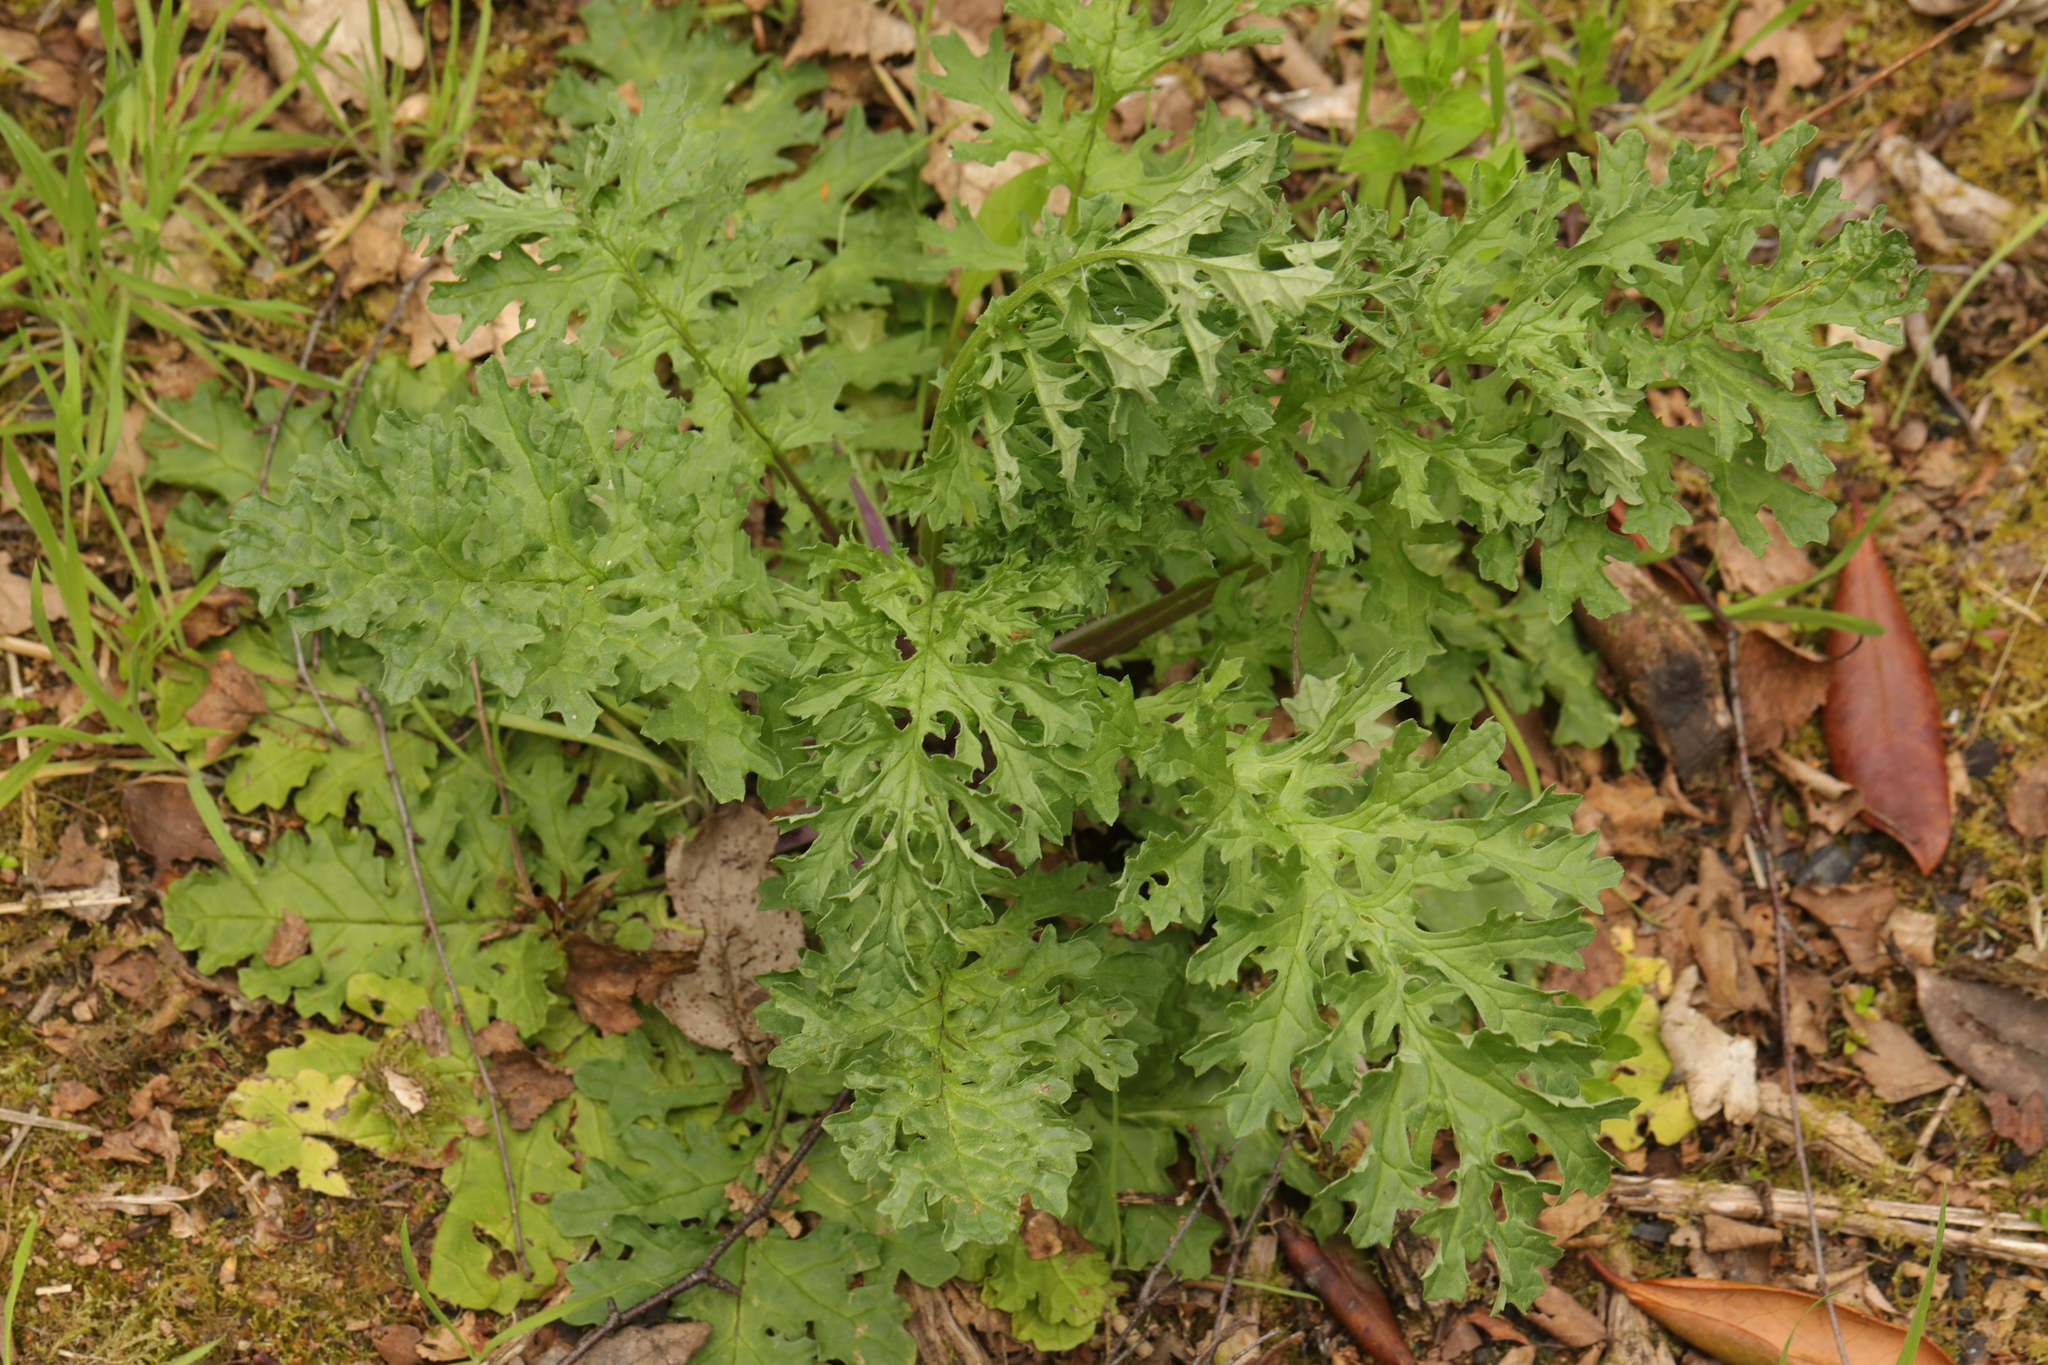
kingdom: Plantae
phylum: Tracheophyta
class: Magnoliopsida
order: Asterales
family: Asteraceae
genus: Jacobaea
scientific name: Jacobaea vulgaris
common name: Stinking willie
